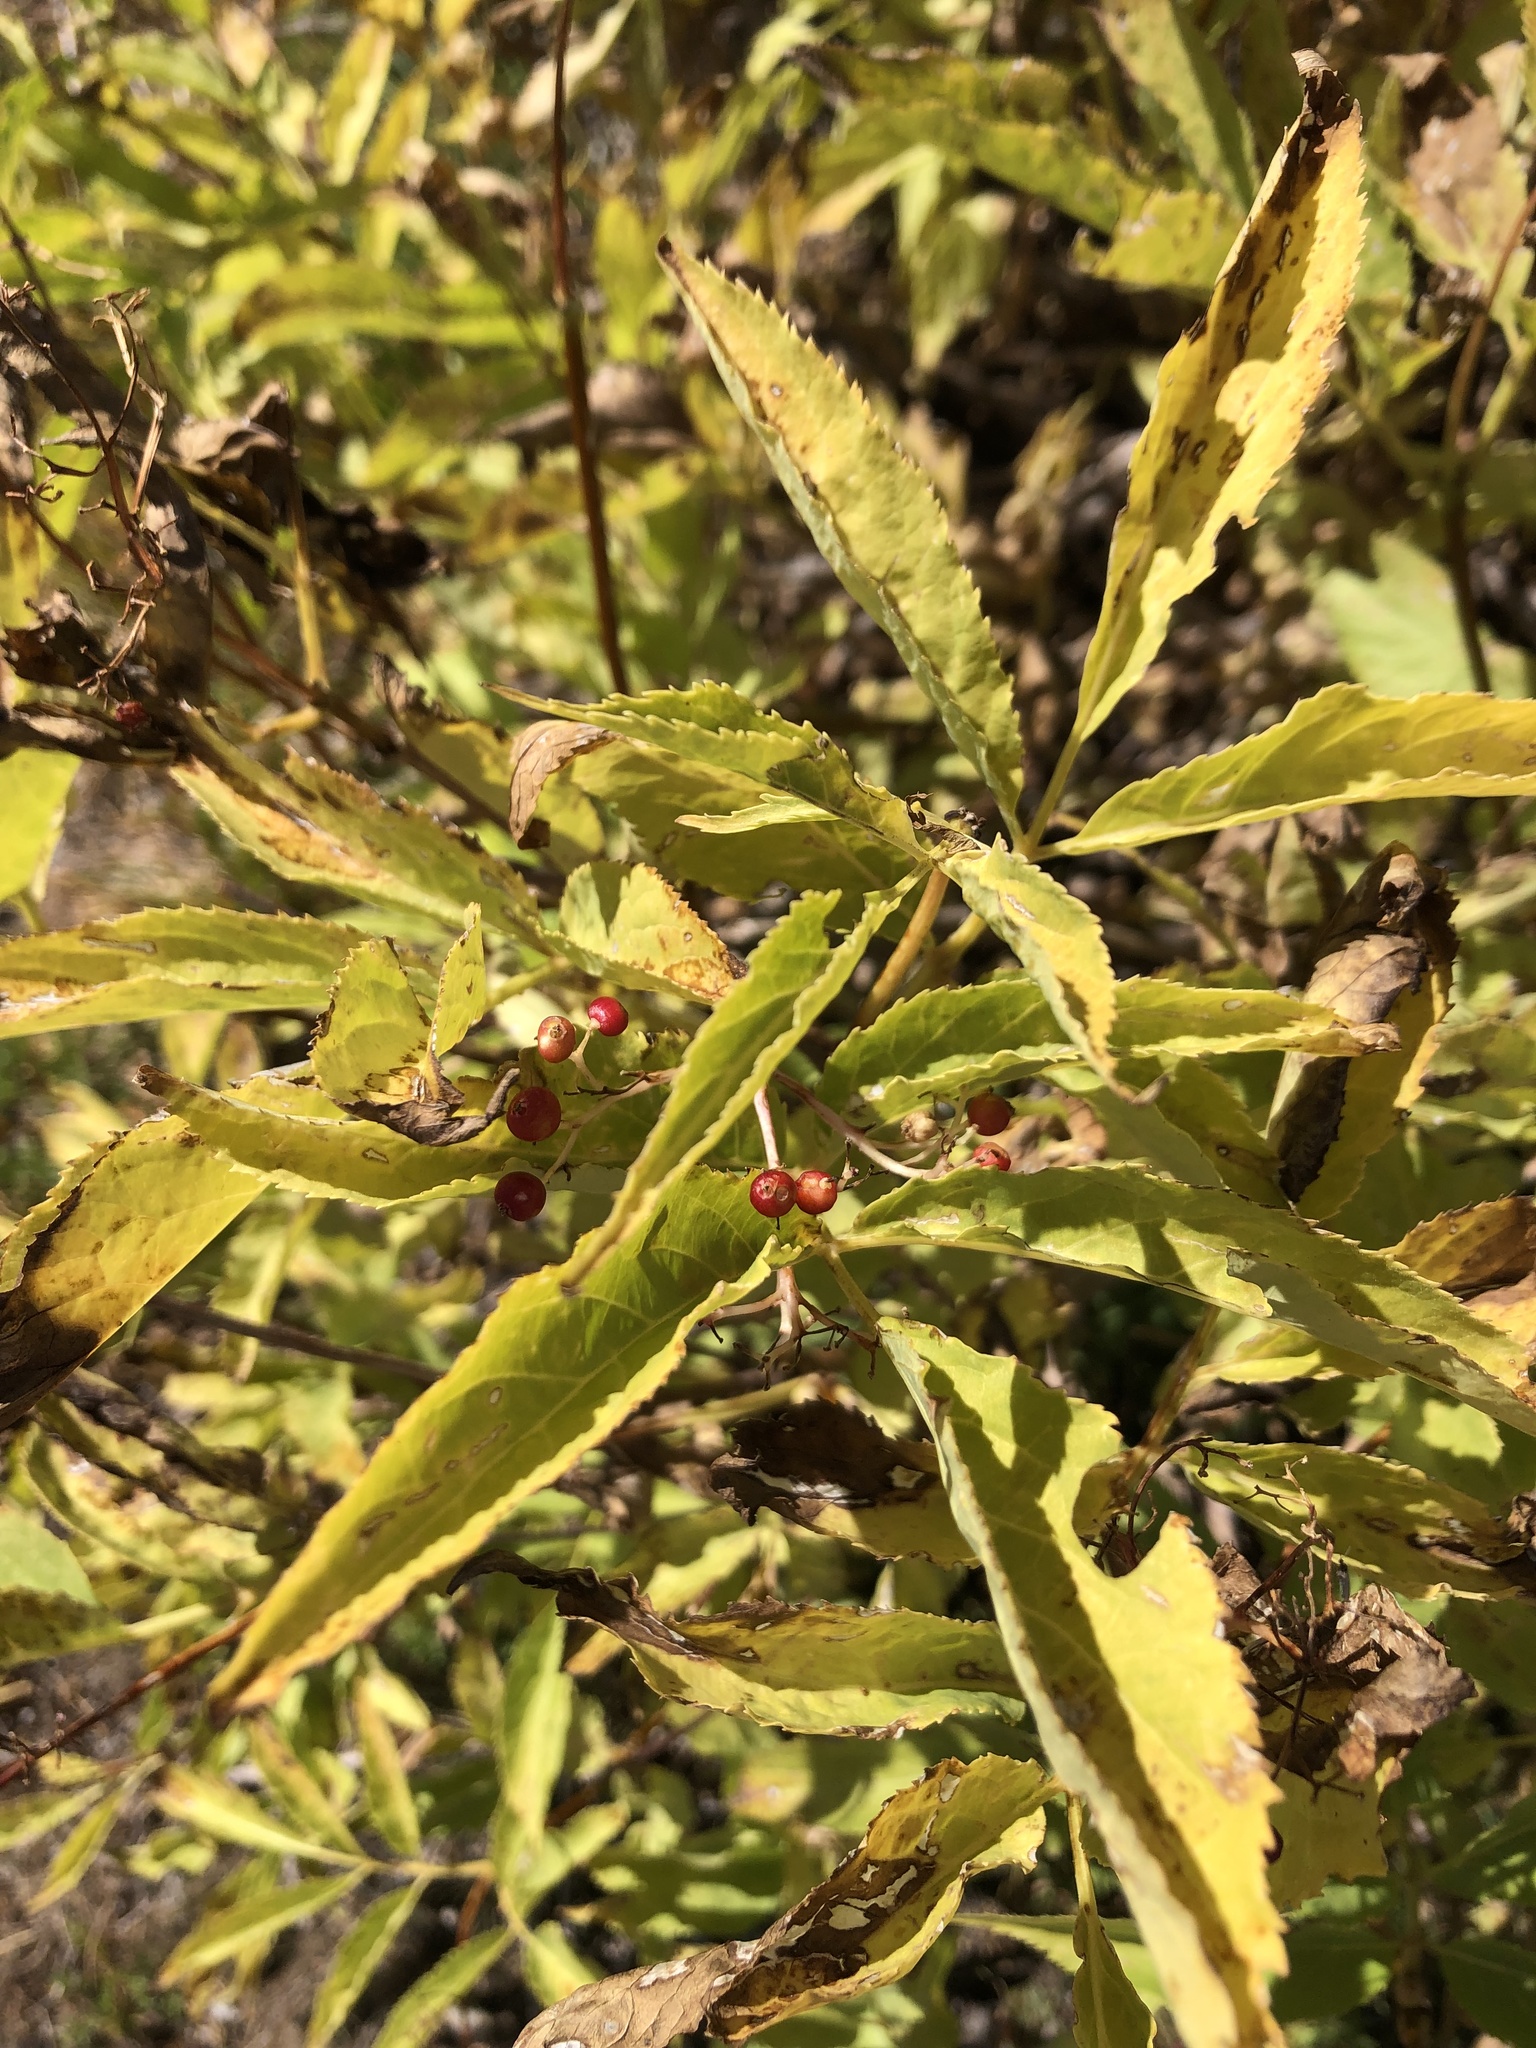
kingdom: Plantae
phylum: Tracheophyta
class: Magnoliopsida
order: Dipsacales
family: Viburnaceae
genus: Sambucus
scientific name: Sambucus racemosa
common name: Red-berried elder
